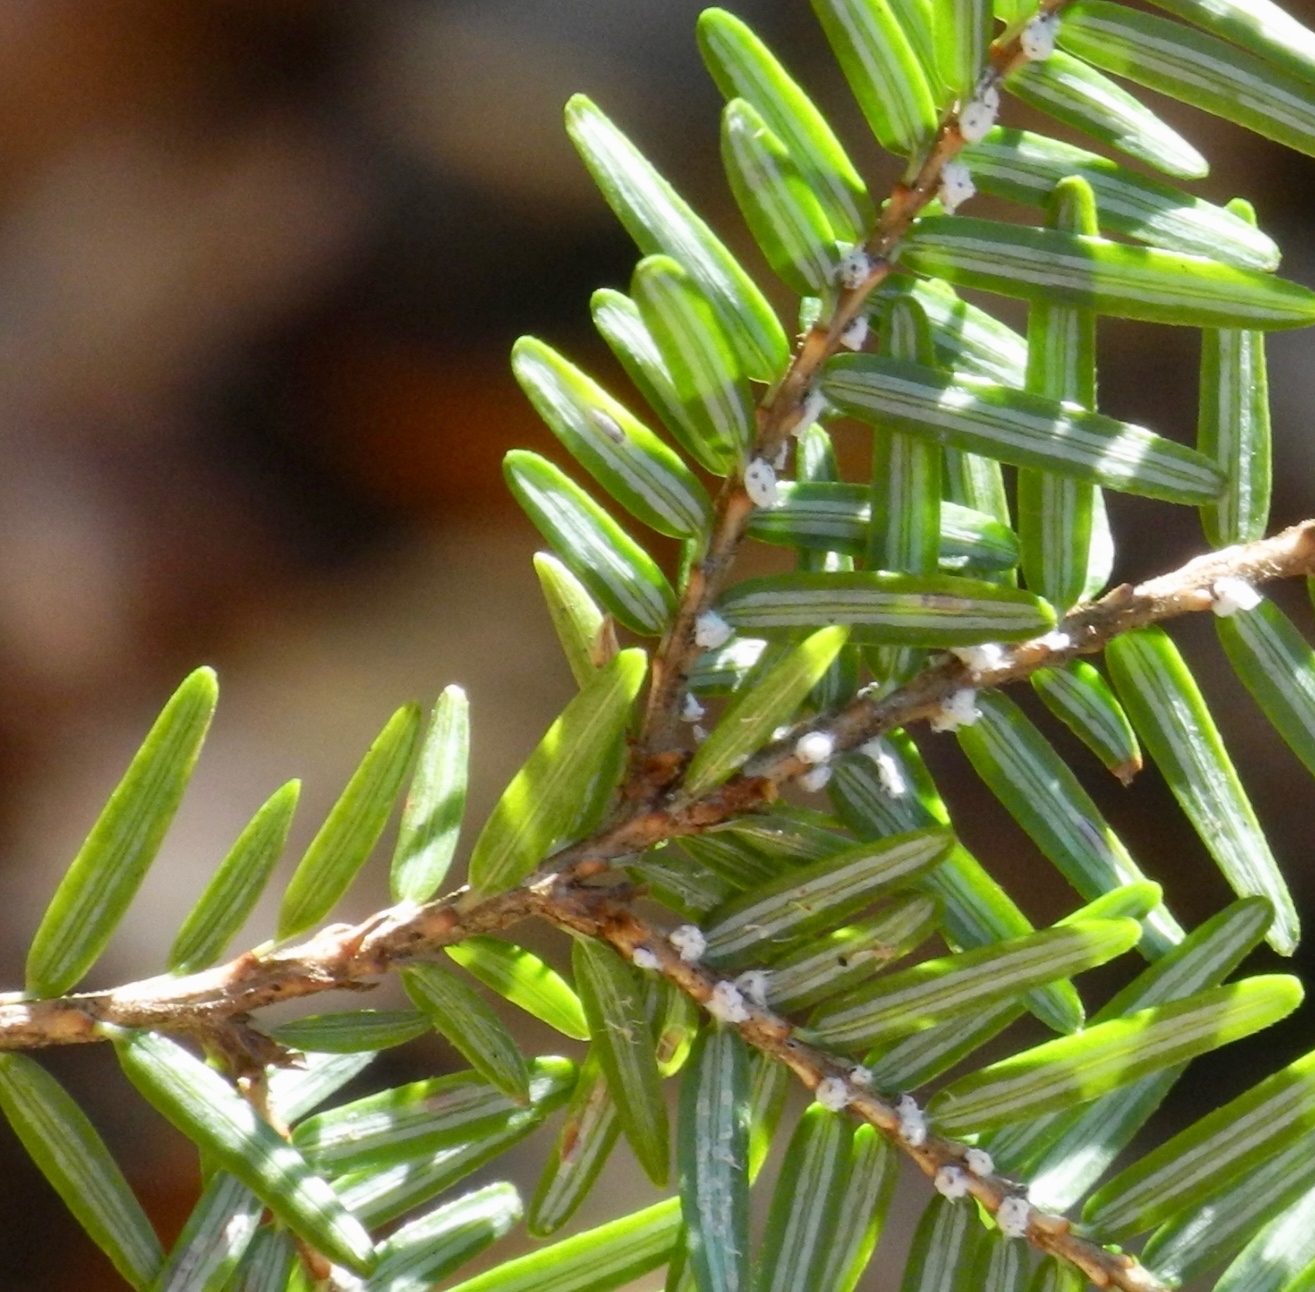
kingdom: Animalia
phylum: Arthropoda
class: Insecta
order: Hemiptera
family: Adelgidae
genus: Adelges
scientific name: Adelges tsugae
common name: Hemlock woolly adelgid
